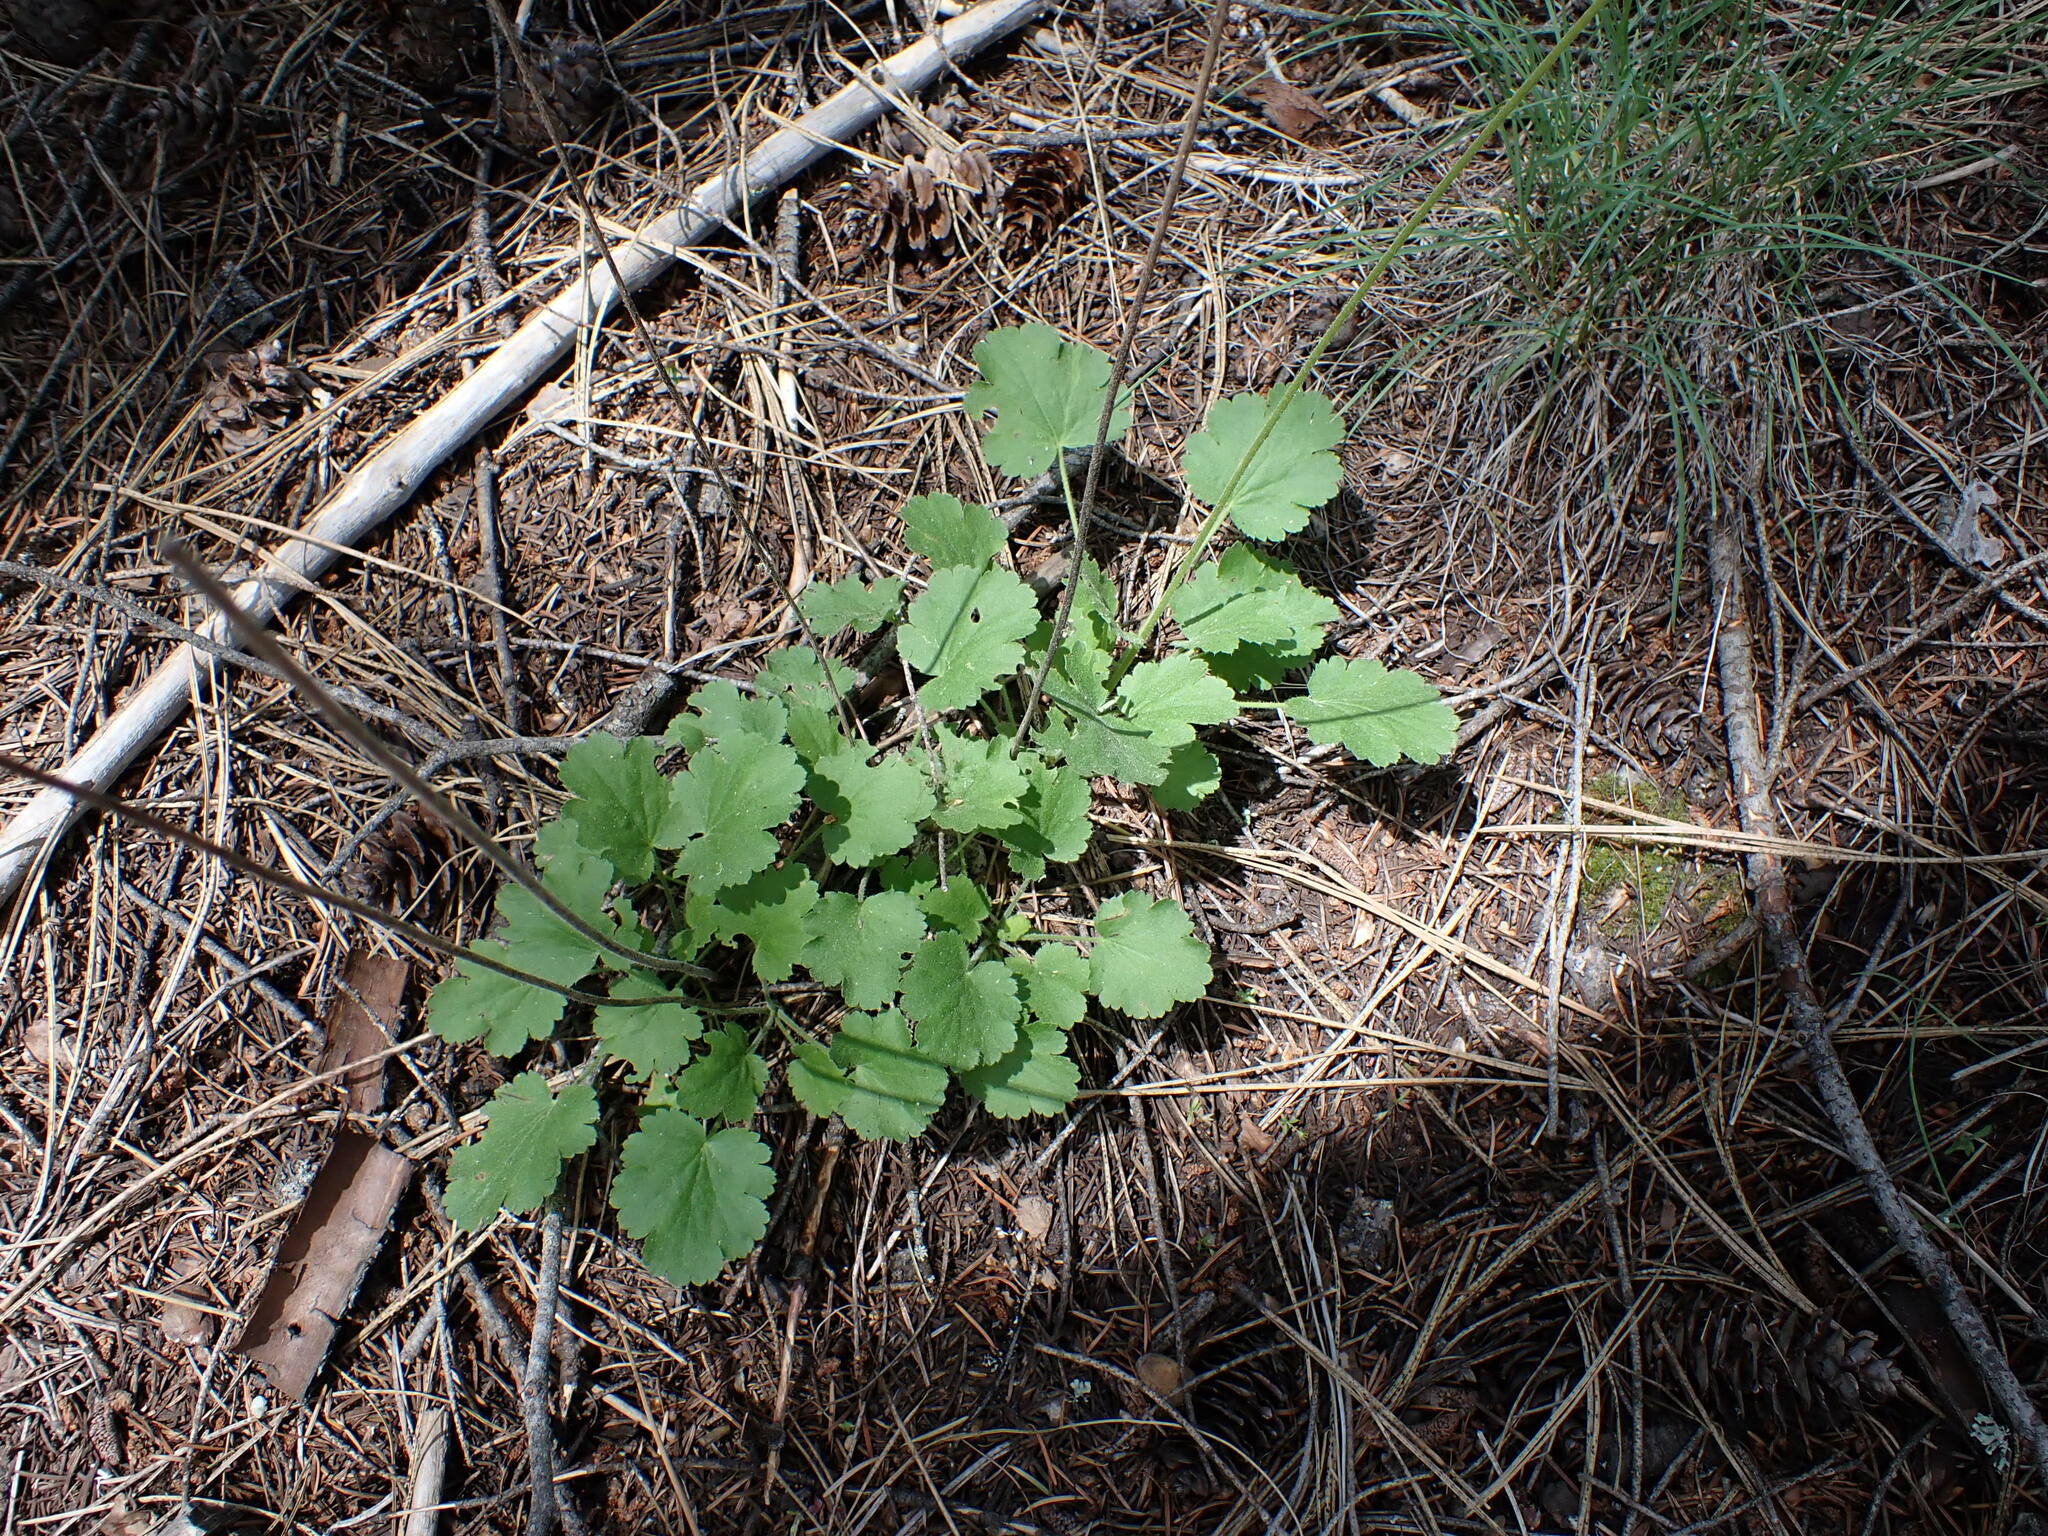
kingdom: Plantae
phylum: Tracheophyta
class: Magnoliopsida
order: Saxifragales
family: Saxifragaceae
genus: Heuchera
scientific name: Heuchera cylindrica
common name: Mat alumroot
